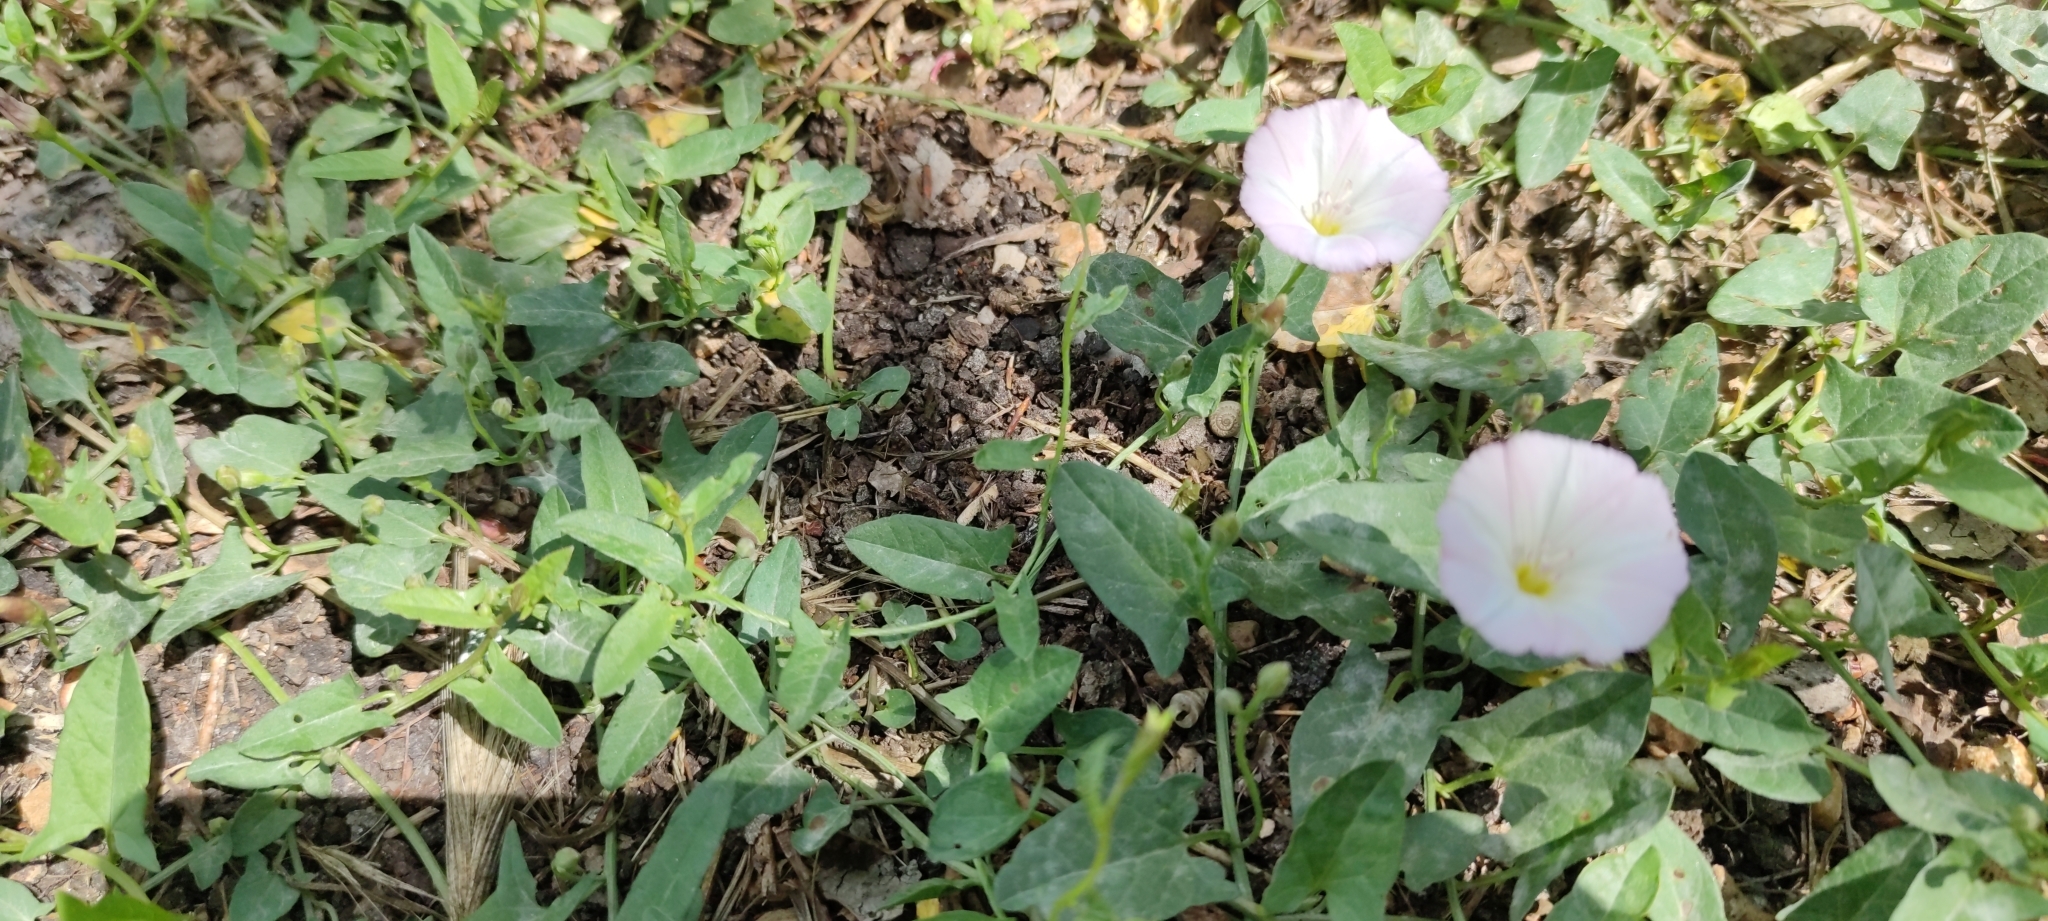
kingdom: Plantae
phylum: Tracheophyta
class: Magnoliopsida
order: Solanales
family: Convolvulaceae
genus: Convolvulus
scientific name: Convolvulus arvensis
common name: Field bindweed
